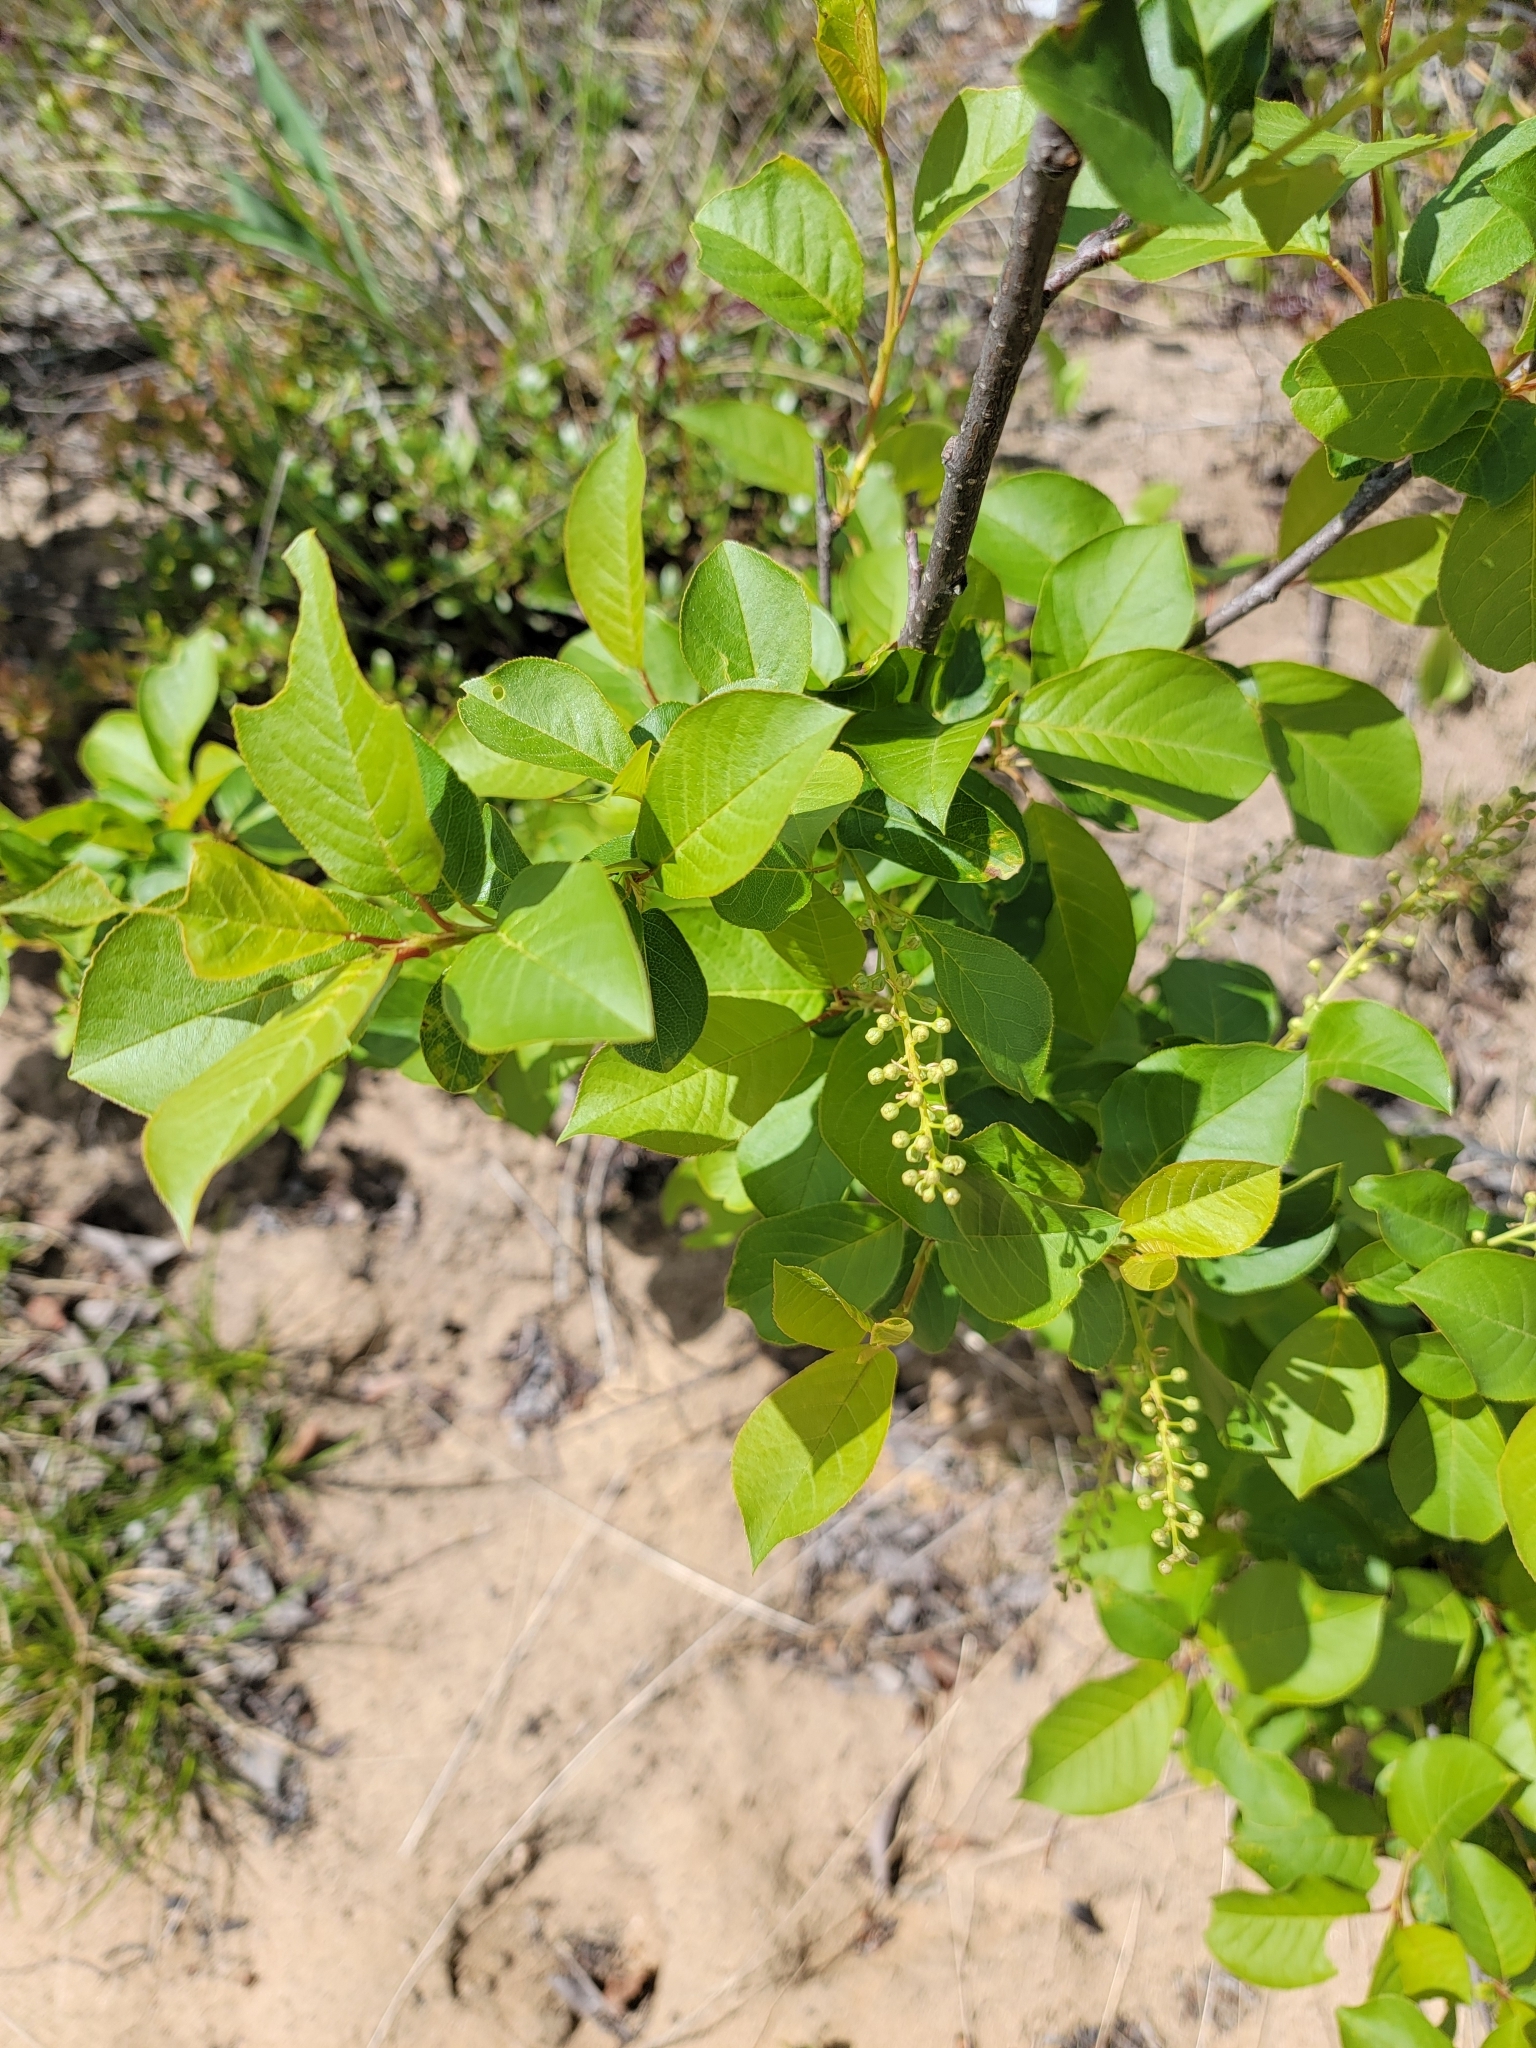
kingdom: Plantae
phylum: Tracheophyta
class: Magnoliopsida
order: Rosales
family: Rosaceae
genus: Prunus
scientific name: Prunus virginiana
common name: Chokecherry
